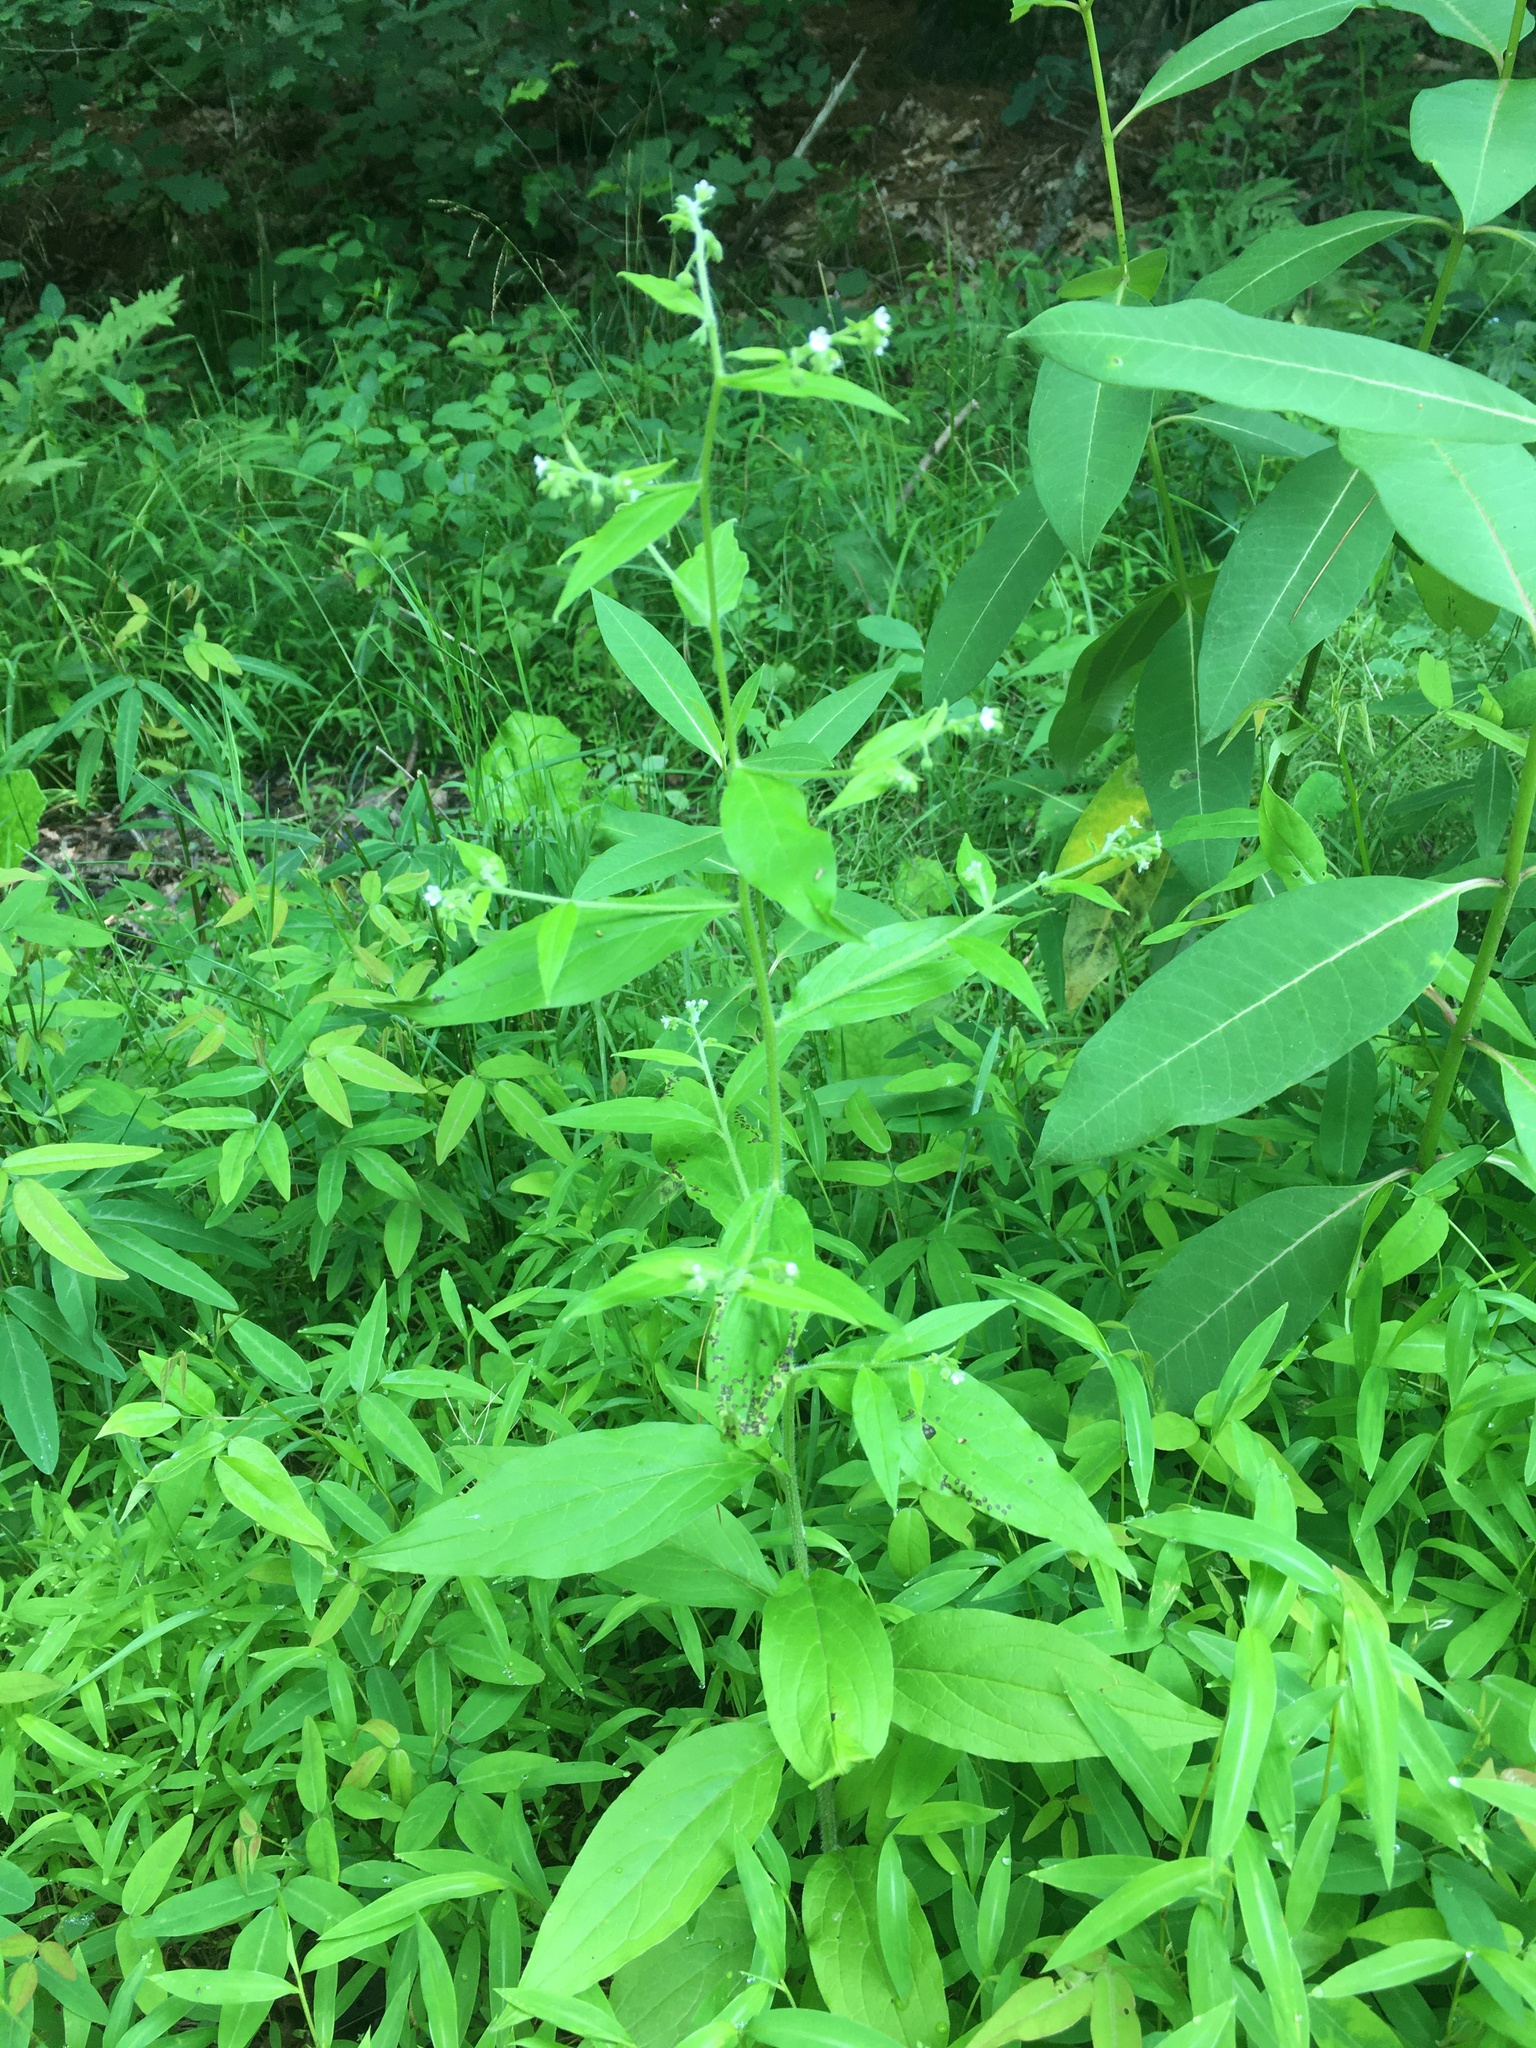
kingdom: Plantae
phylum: Tracheophyta
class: Magnoliopsida
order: Boraginales
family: Boraginaceae
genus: Hackelia
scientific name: Hackelia virginiana
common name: Beggar's-lice
